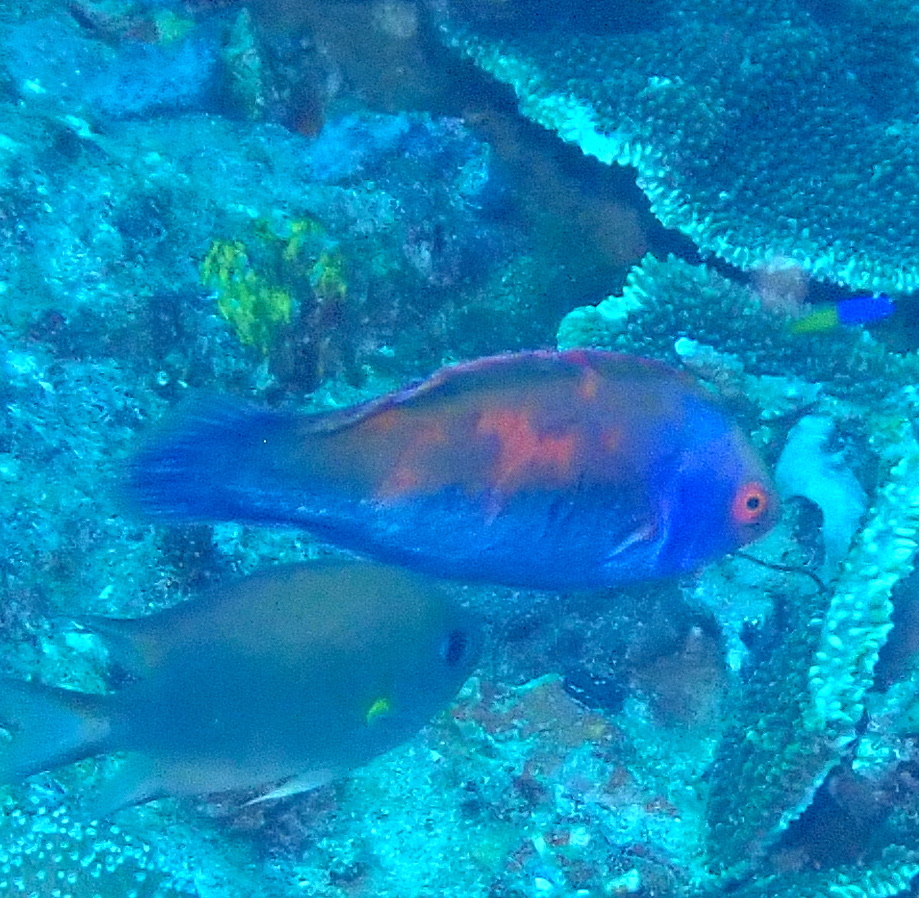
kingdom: Animalia
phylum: Chordata
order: Perciformes
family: Labridae
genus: Cirrhilabrus
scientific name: Cirrhilabrus solorensis
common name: Red-eye wrasse
